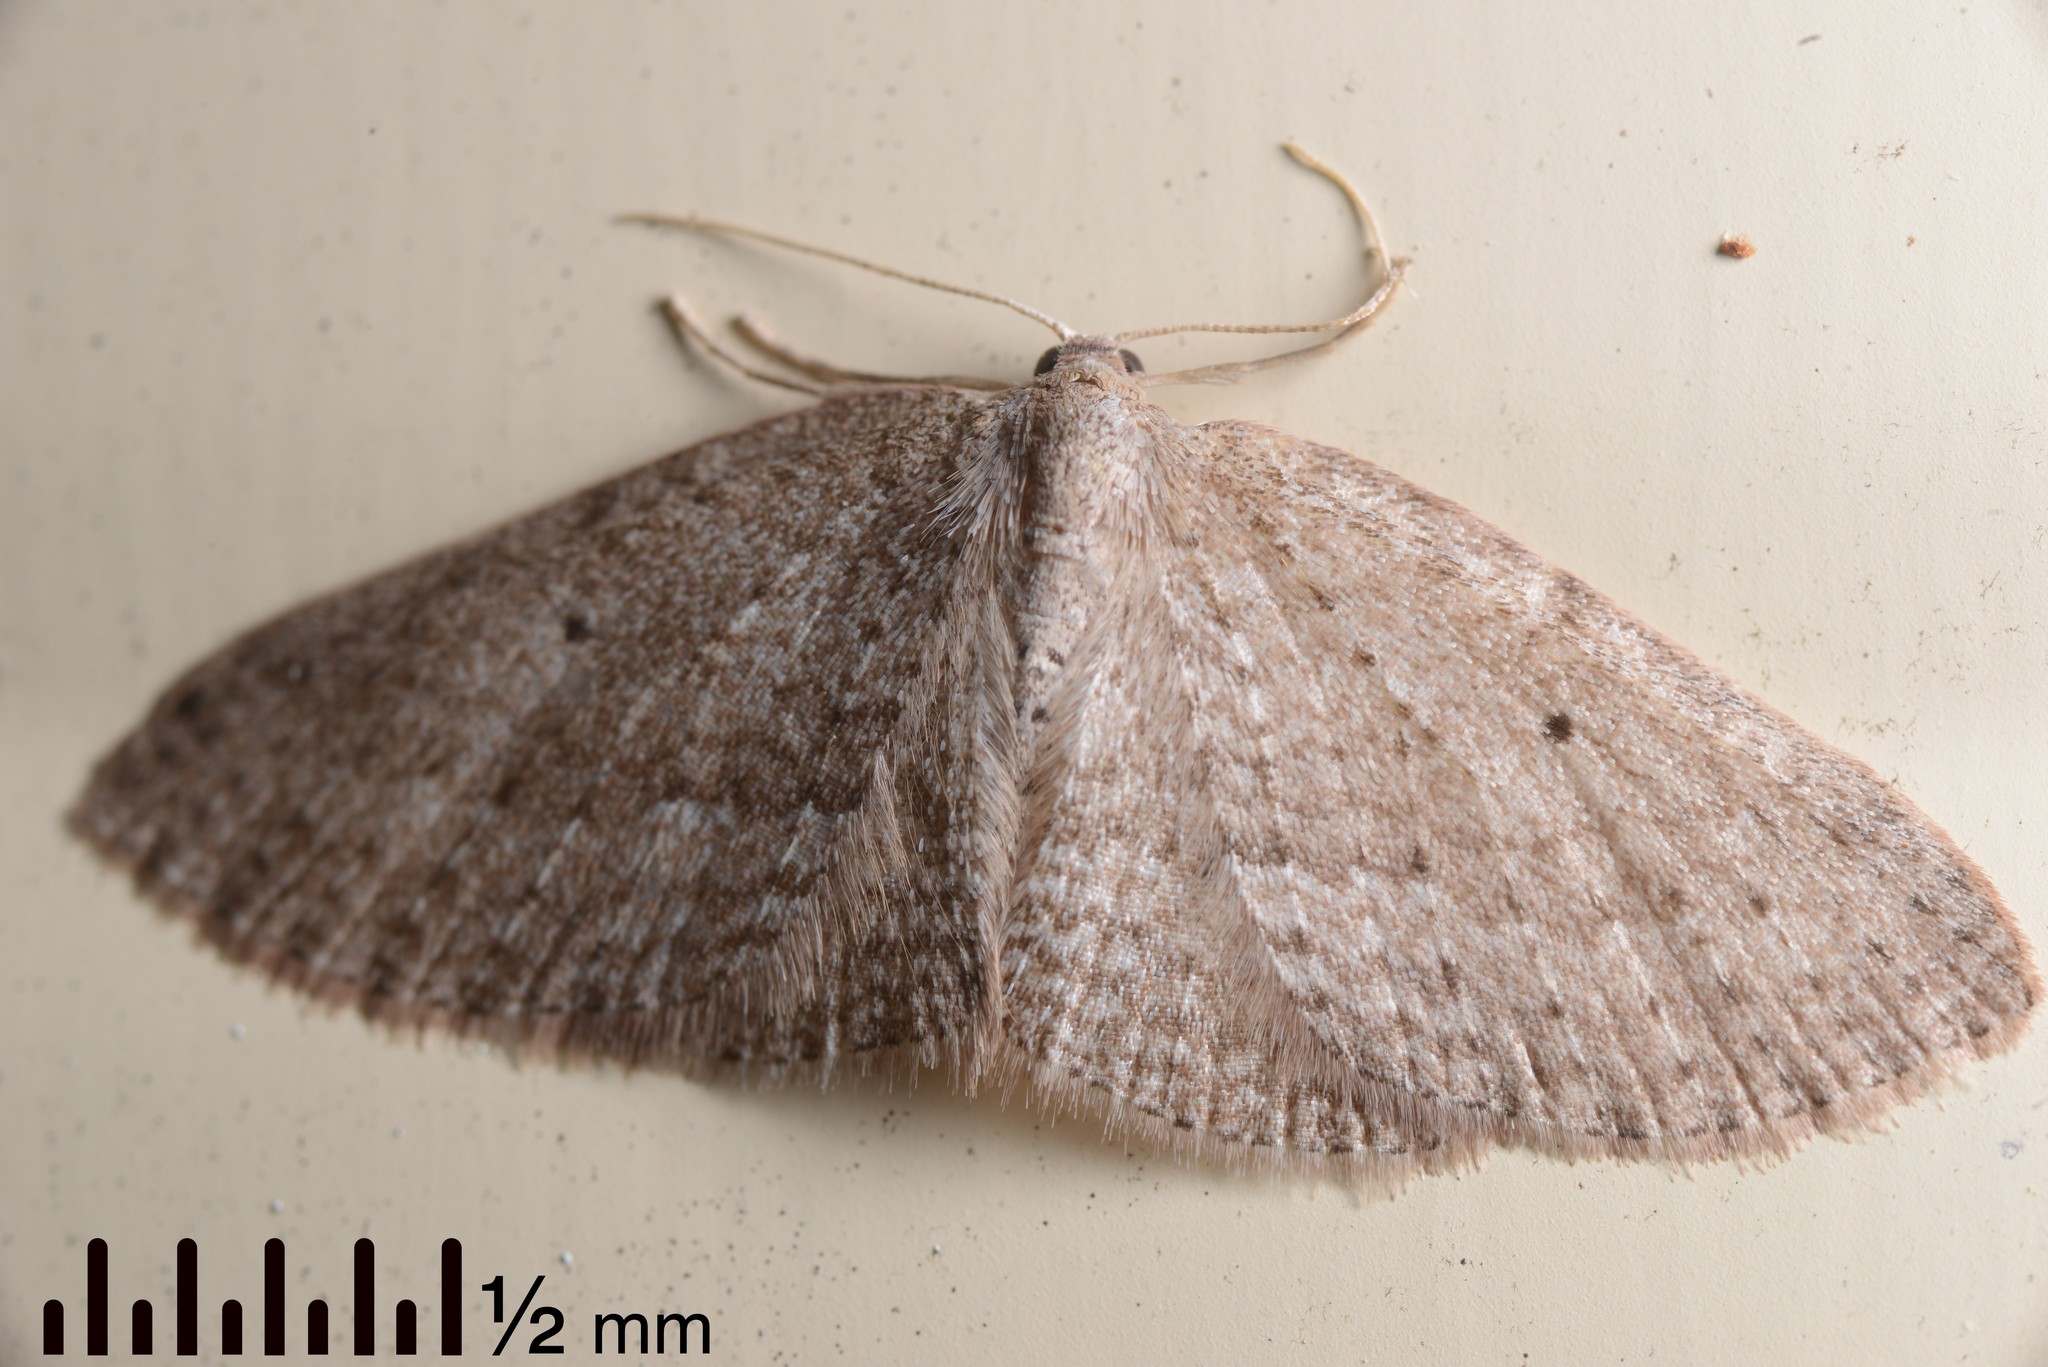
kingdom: Animalia
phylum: Arthropoda
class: Insecta
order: Lepidoptera
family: Geometridae
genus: Poecilasthena
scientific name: Poecilasthena schistaria
